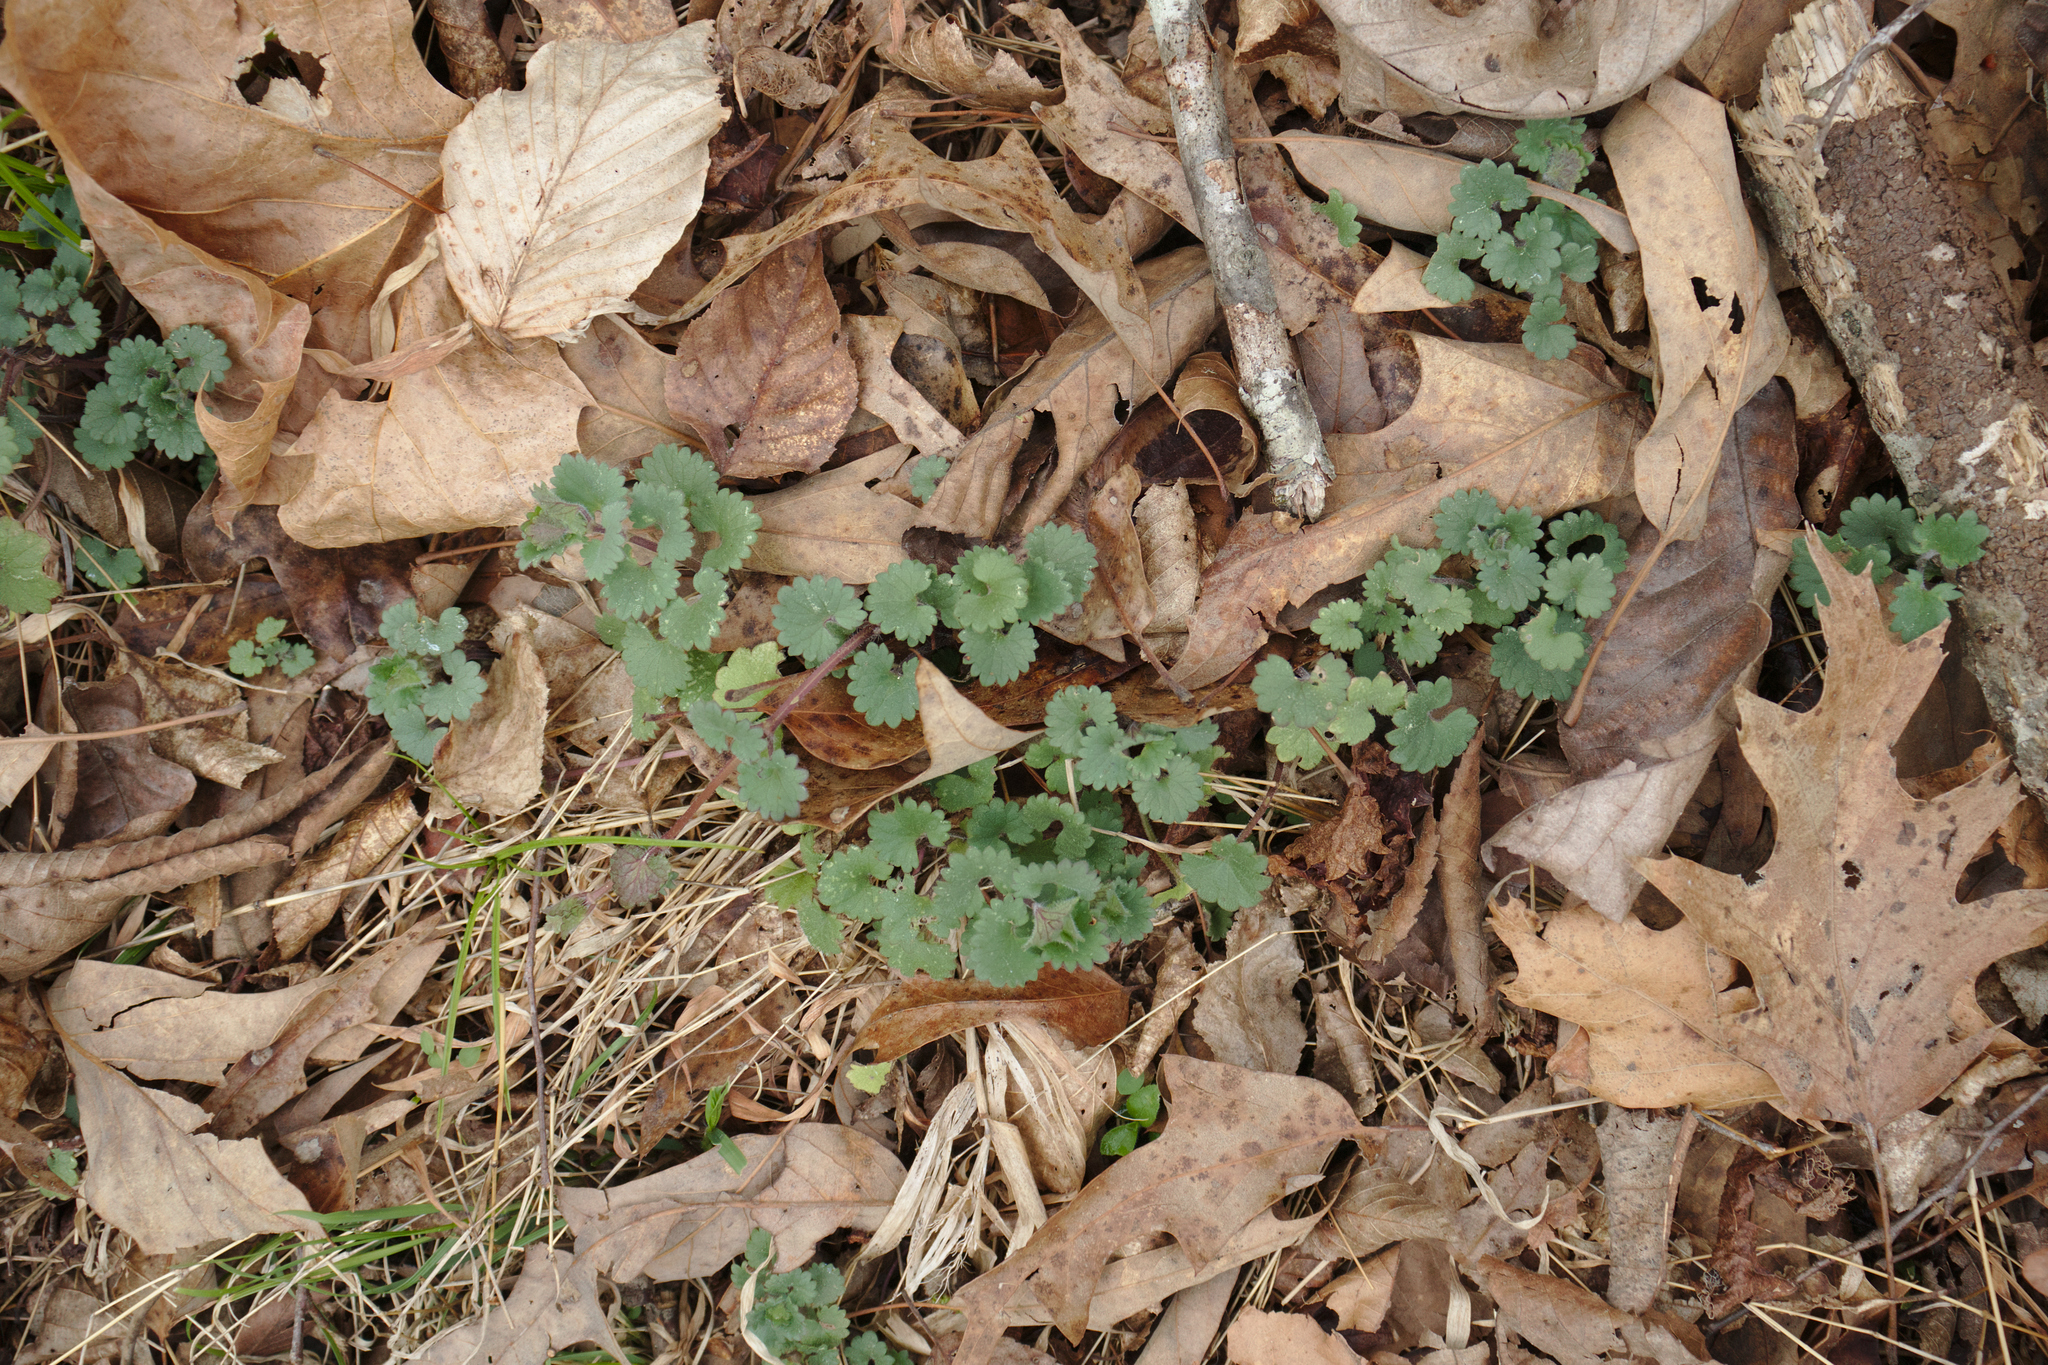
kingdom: Plantae
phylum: Tracheophyta
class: Magnoliopsida
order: Lamiales
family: Lamiaceae
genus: Glechoma
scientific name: Glechoma hederacea
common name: Ground ivy
